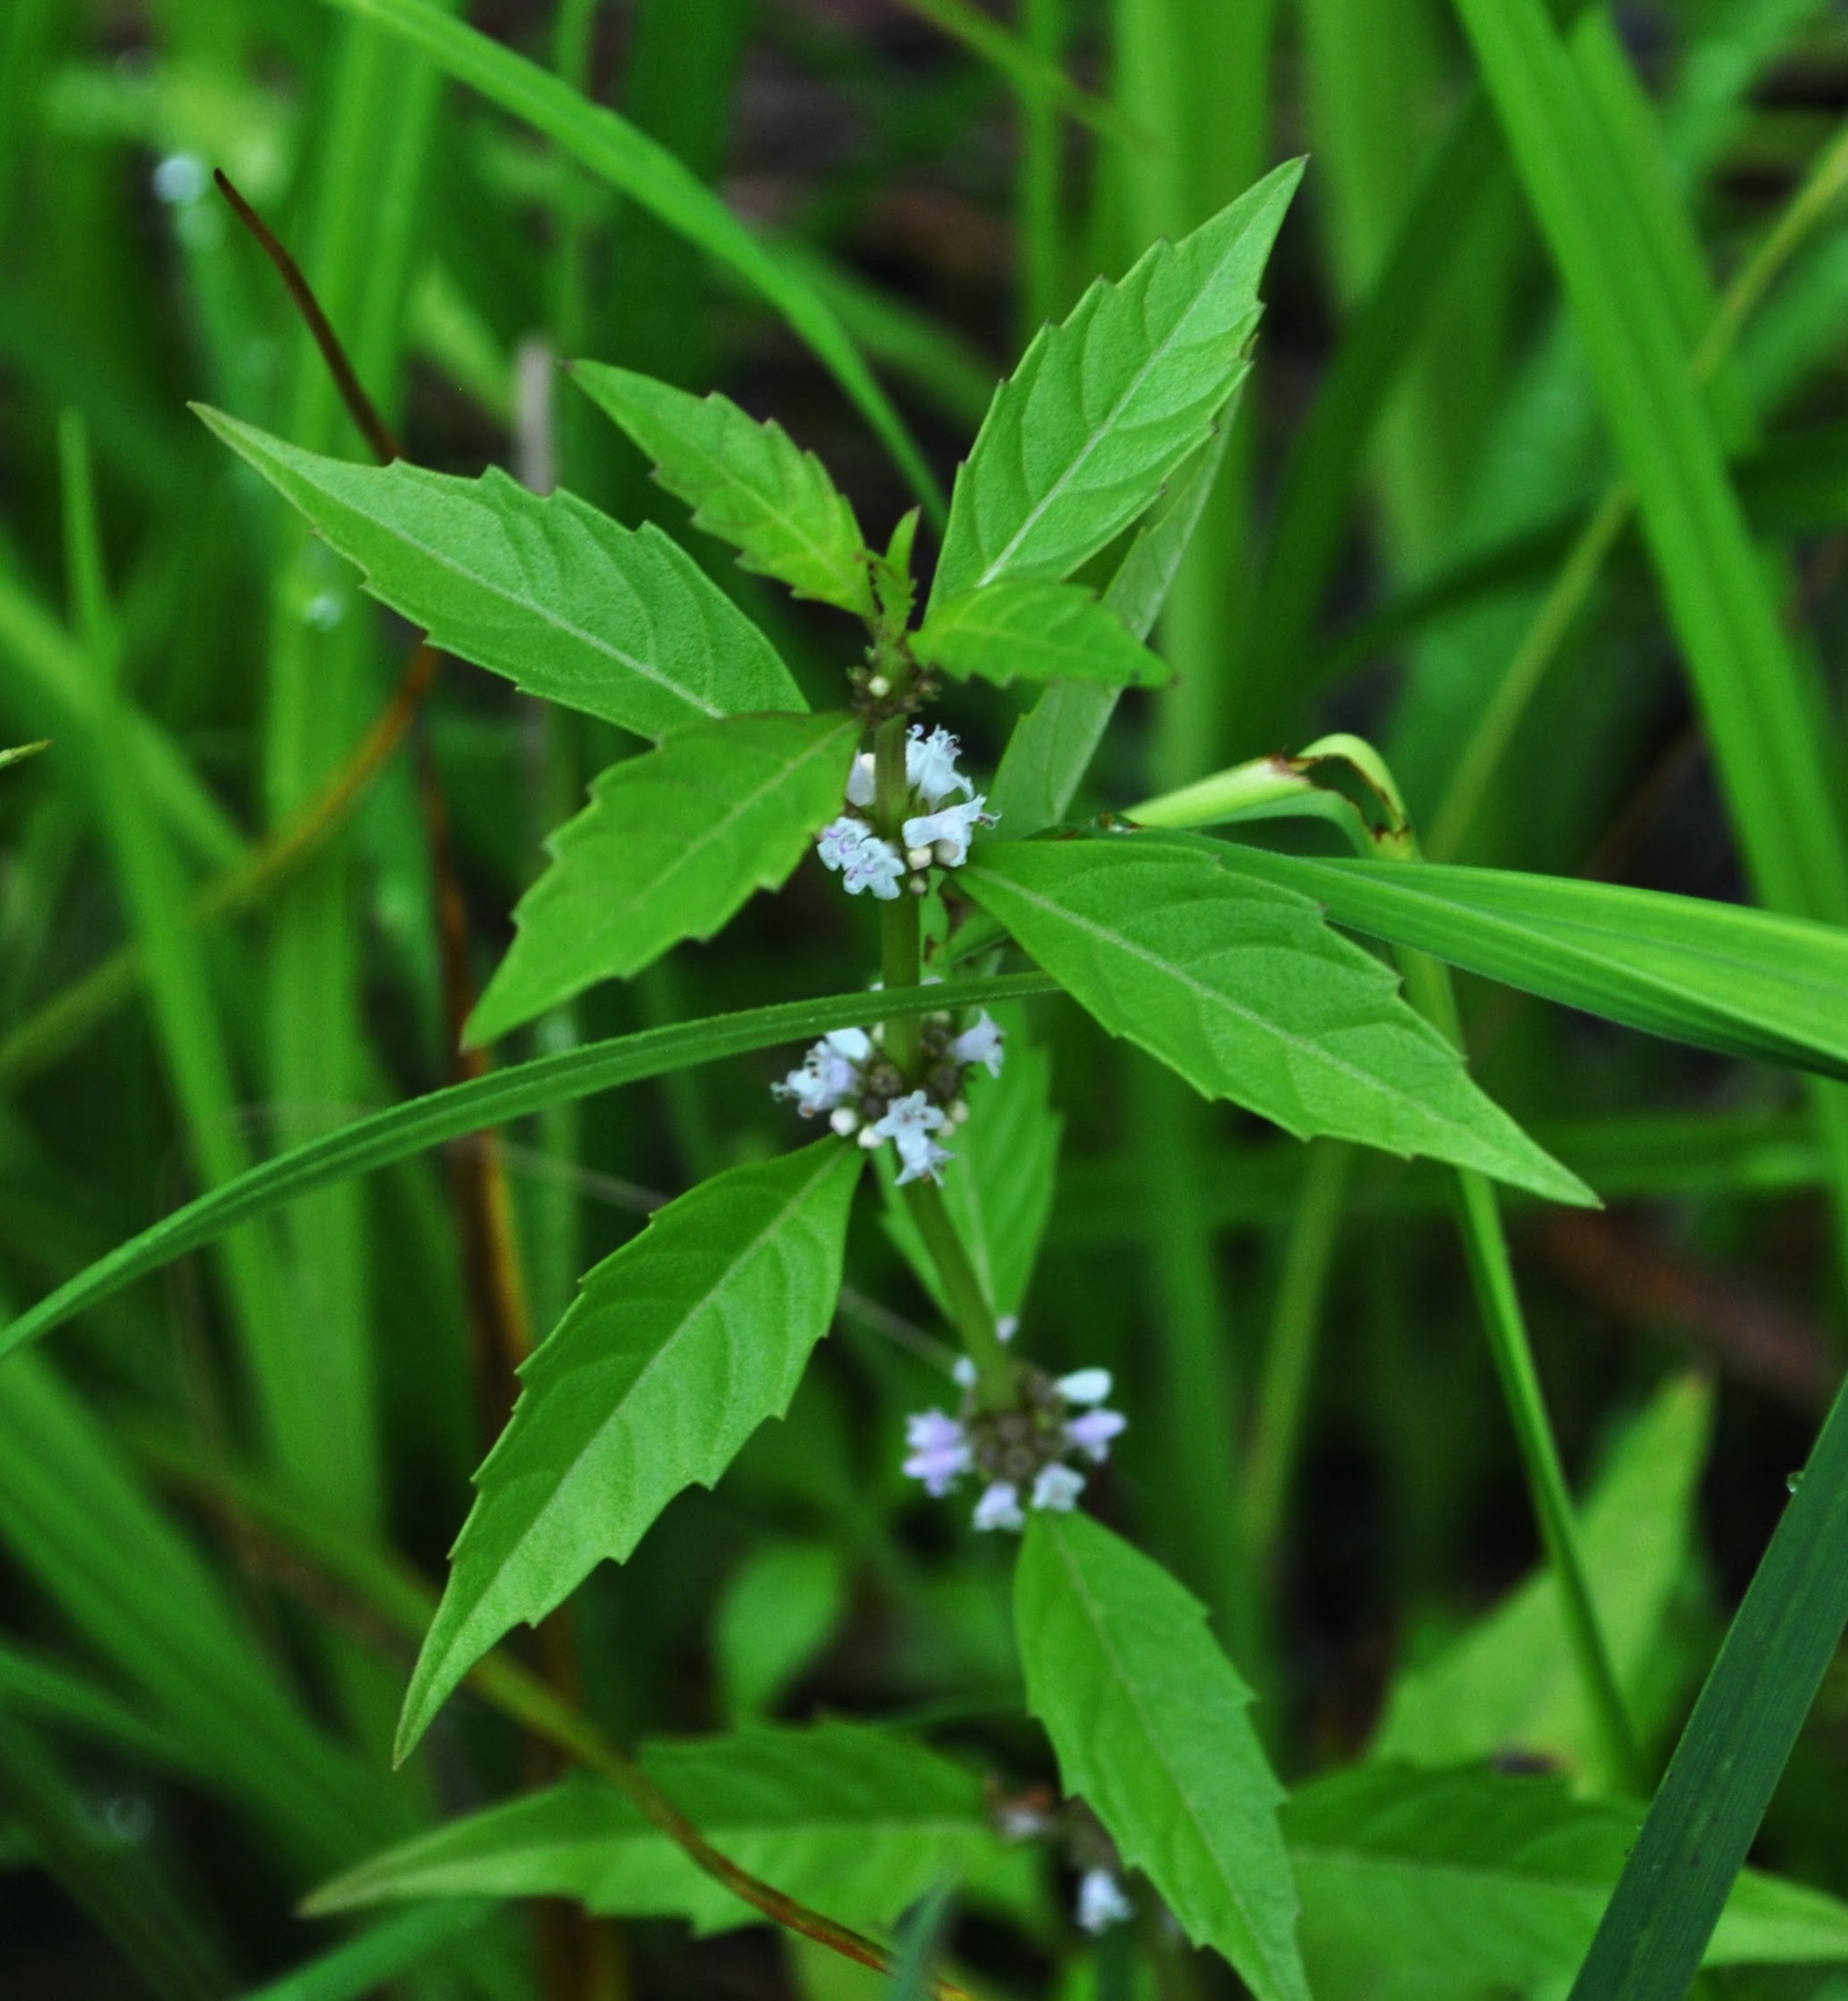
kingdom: Plantae
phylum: Tracheophyta
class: Magnoliopsida
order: Lamiales
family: Lamiaceae
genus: Lycopus
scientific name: Lycopus uniflorus
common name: Northern bugleweed
